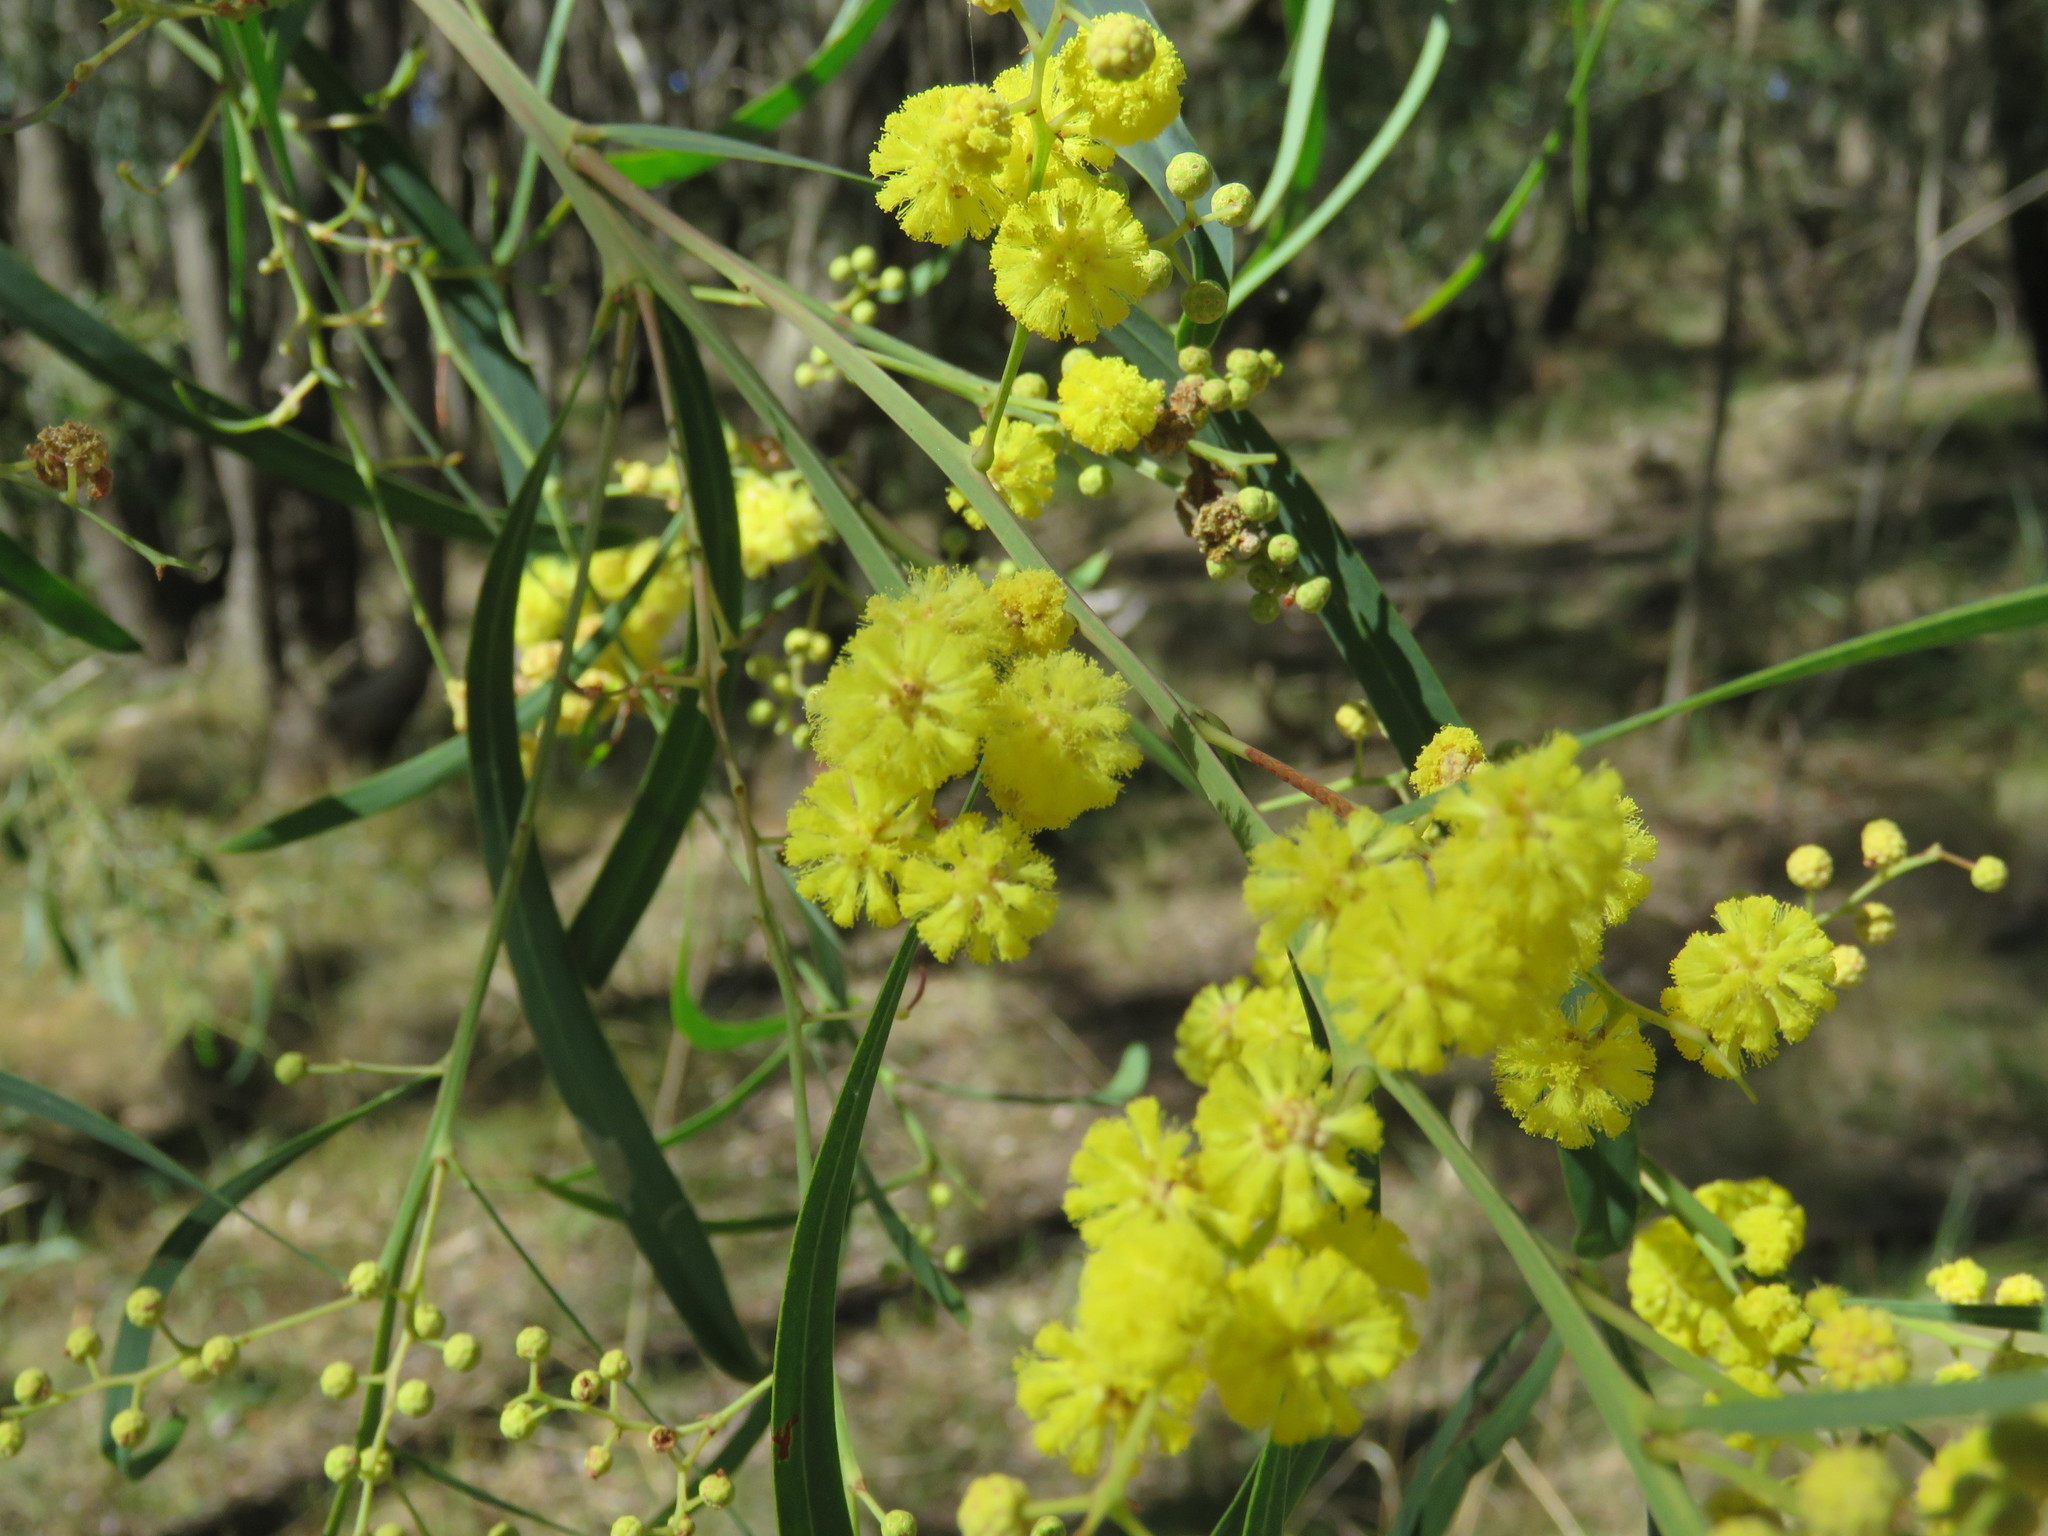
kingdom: Plantae
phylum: Tracheophyta
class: Magnoliopsida
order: Fabales
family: Fabaceae
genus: Acacia
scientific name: Acacia provincialis
